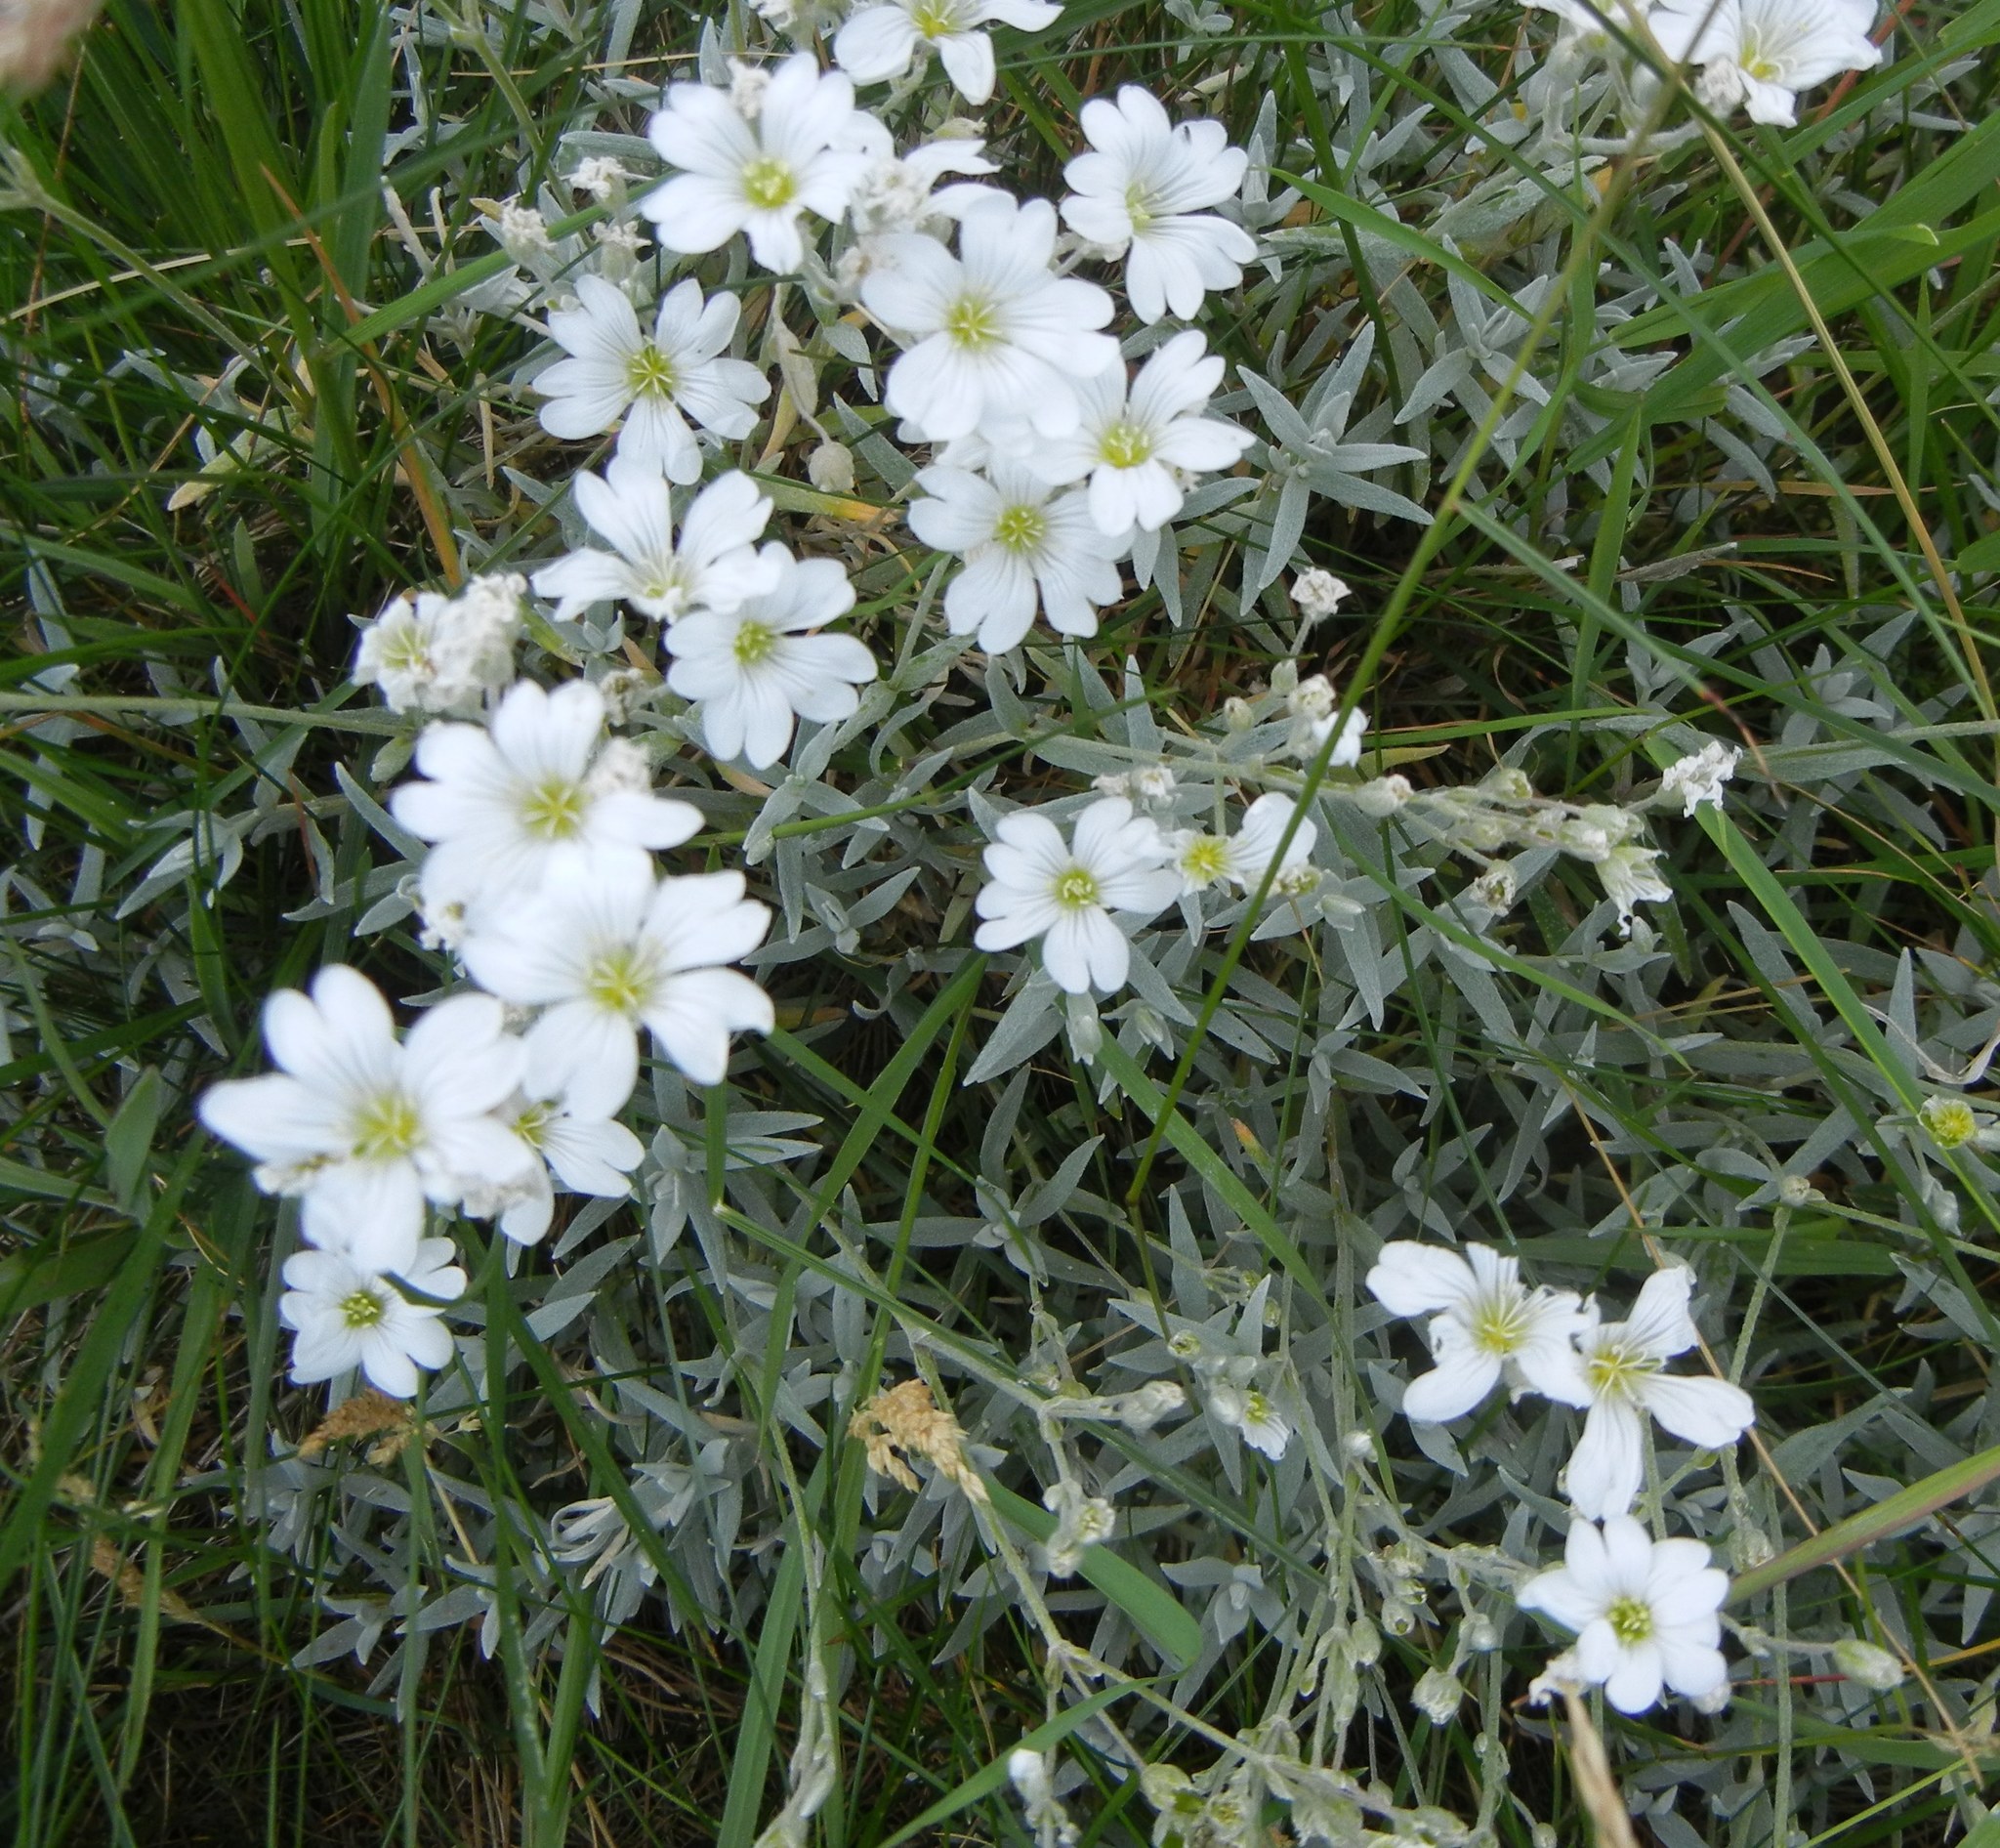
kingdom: Plantae
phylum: Tracheophyta
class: Magnoliopsida
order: Caryophyllales
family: Caryophyllaceae
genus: Cerastium
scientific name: Cerastium tomentosum
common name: Snow-in-summer
